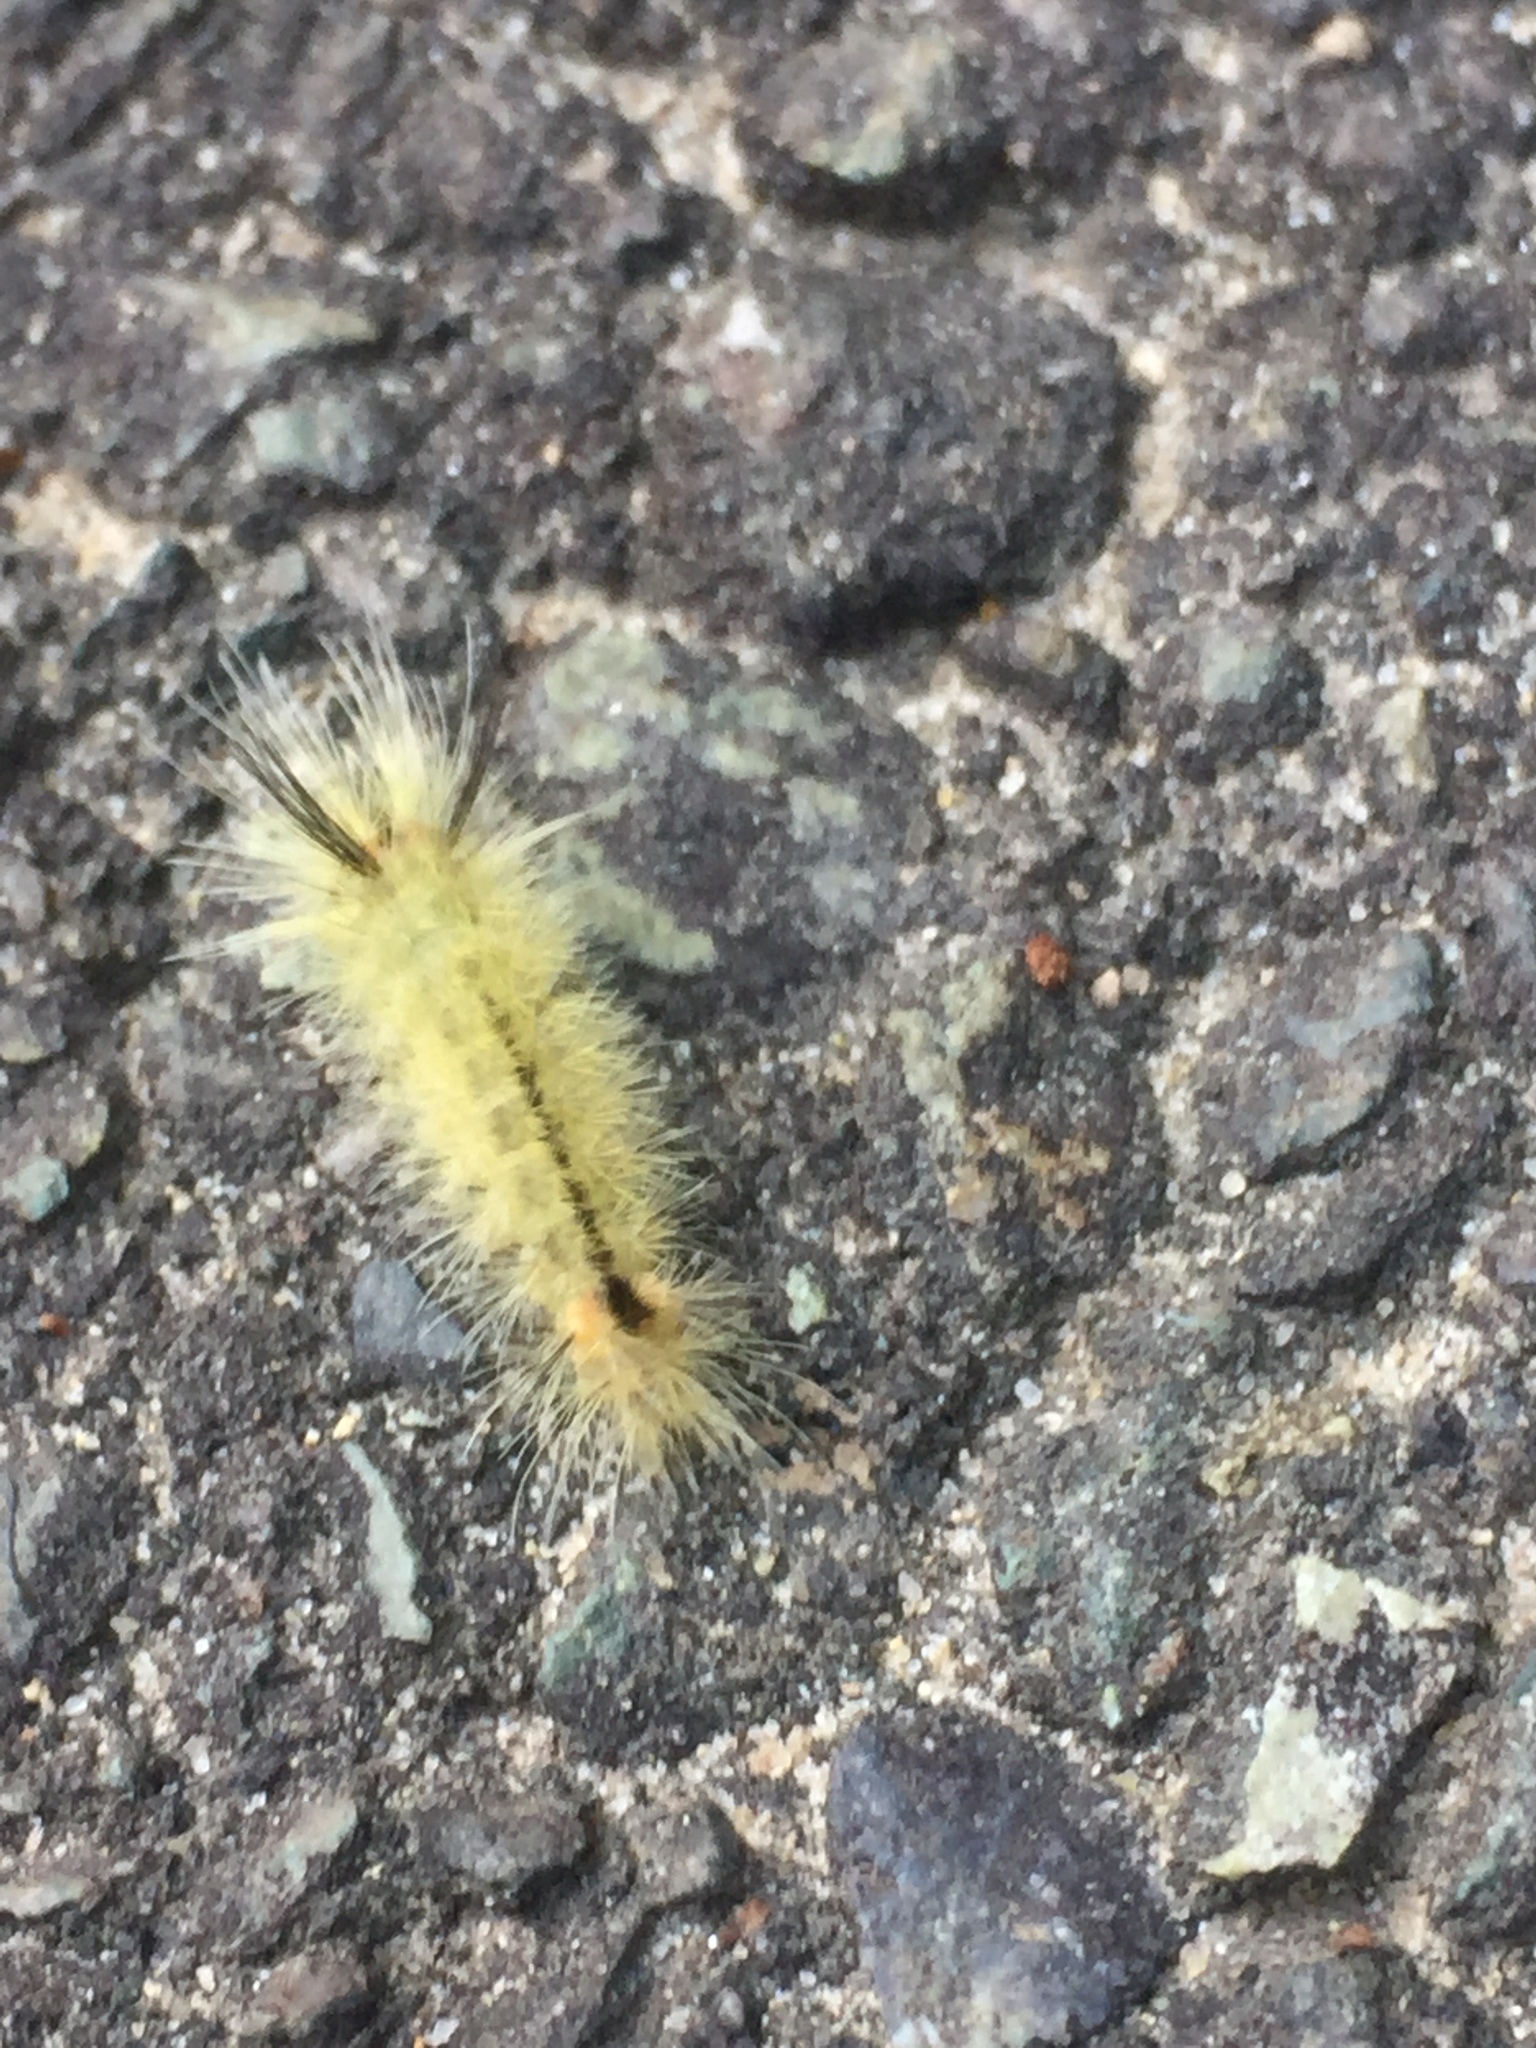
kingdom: Animalia
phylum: Arthropoda
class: Insecta
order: Lepidoptera
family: Erebidae
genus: Halysidota
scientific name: Halysidota tessellaris
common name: Banded tussock moth
